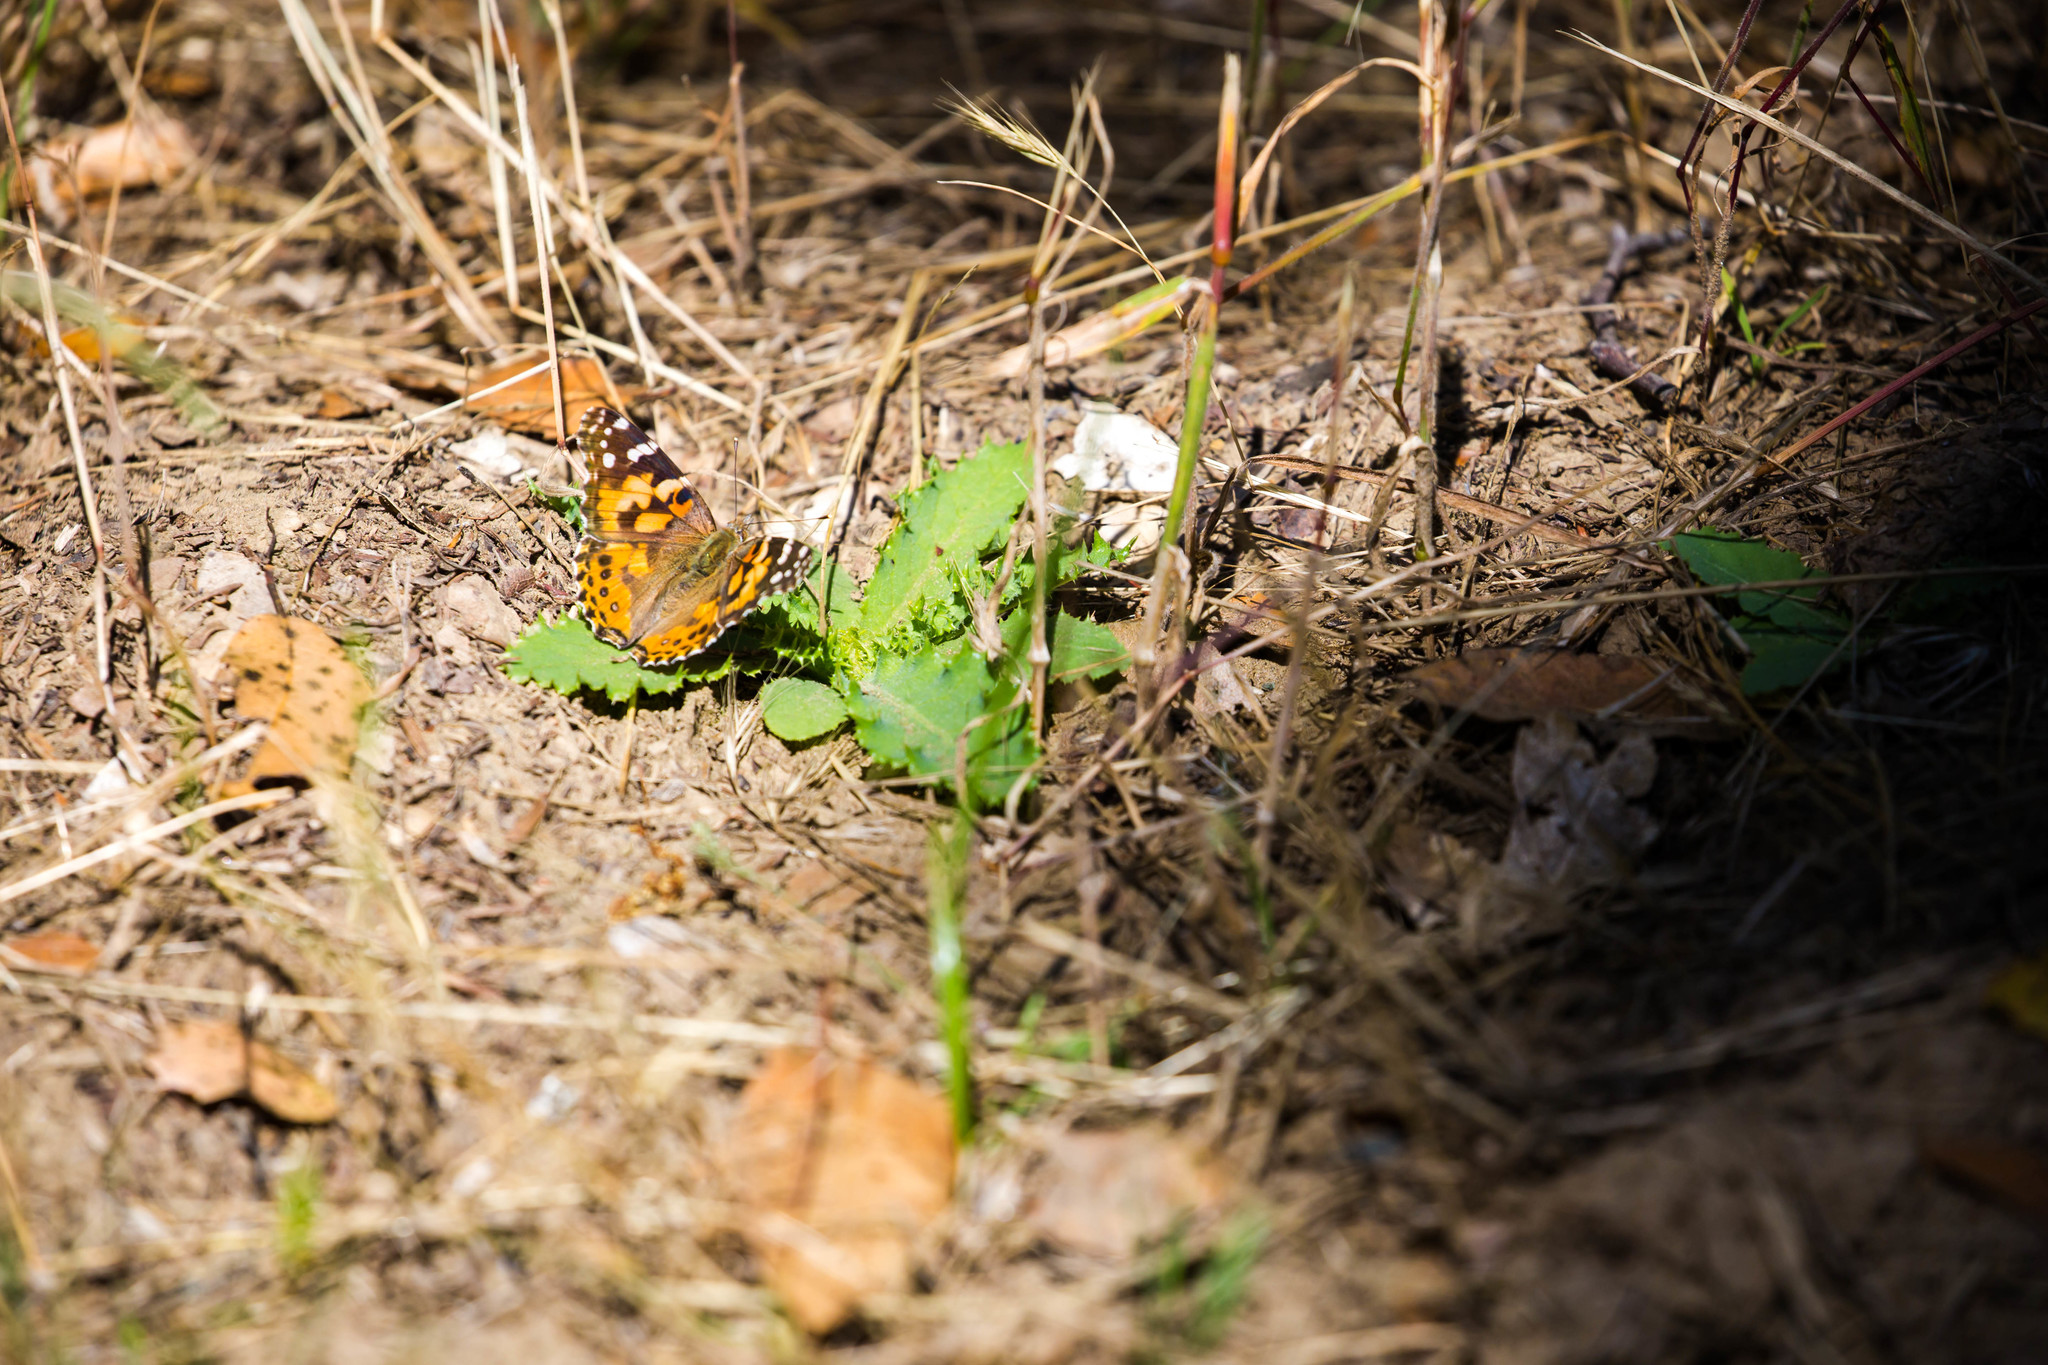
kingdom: Animalia
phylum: Arthropoda
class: Insecta
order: Lepidoptera
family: Nymphalidae
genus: Vanessa
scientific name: Vanessa cardui
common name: Painted lady
